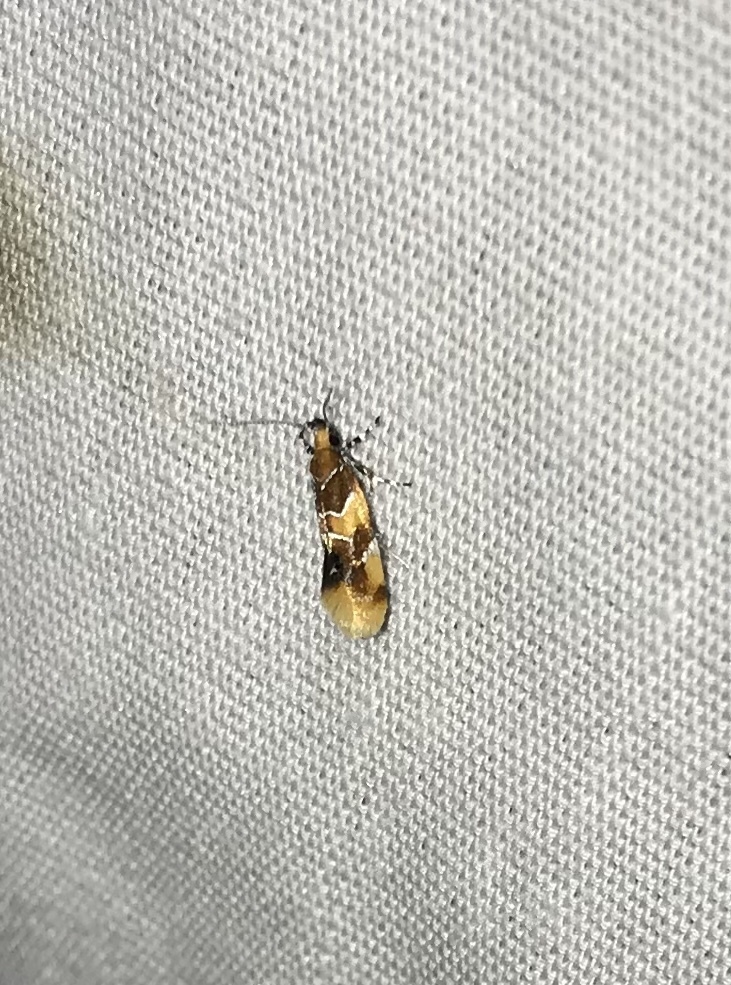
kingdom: Animalia
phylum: Arthropoda
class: Insecta
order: Lepidoptera
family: Oecophoridae
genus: Callima
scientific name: Callima argenticinctella
